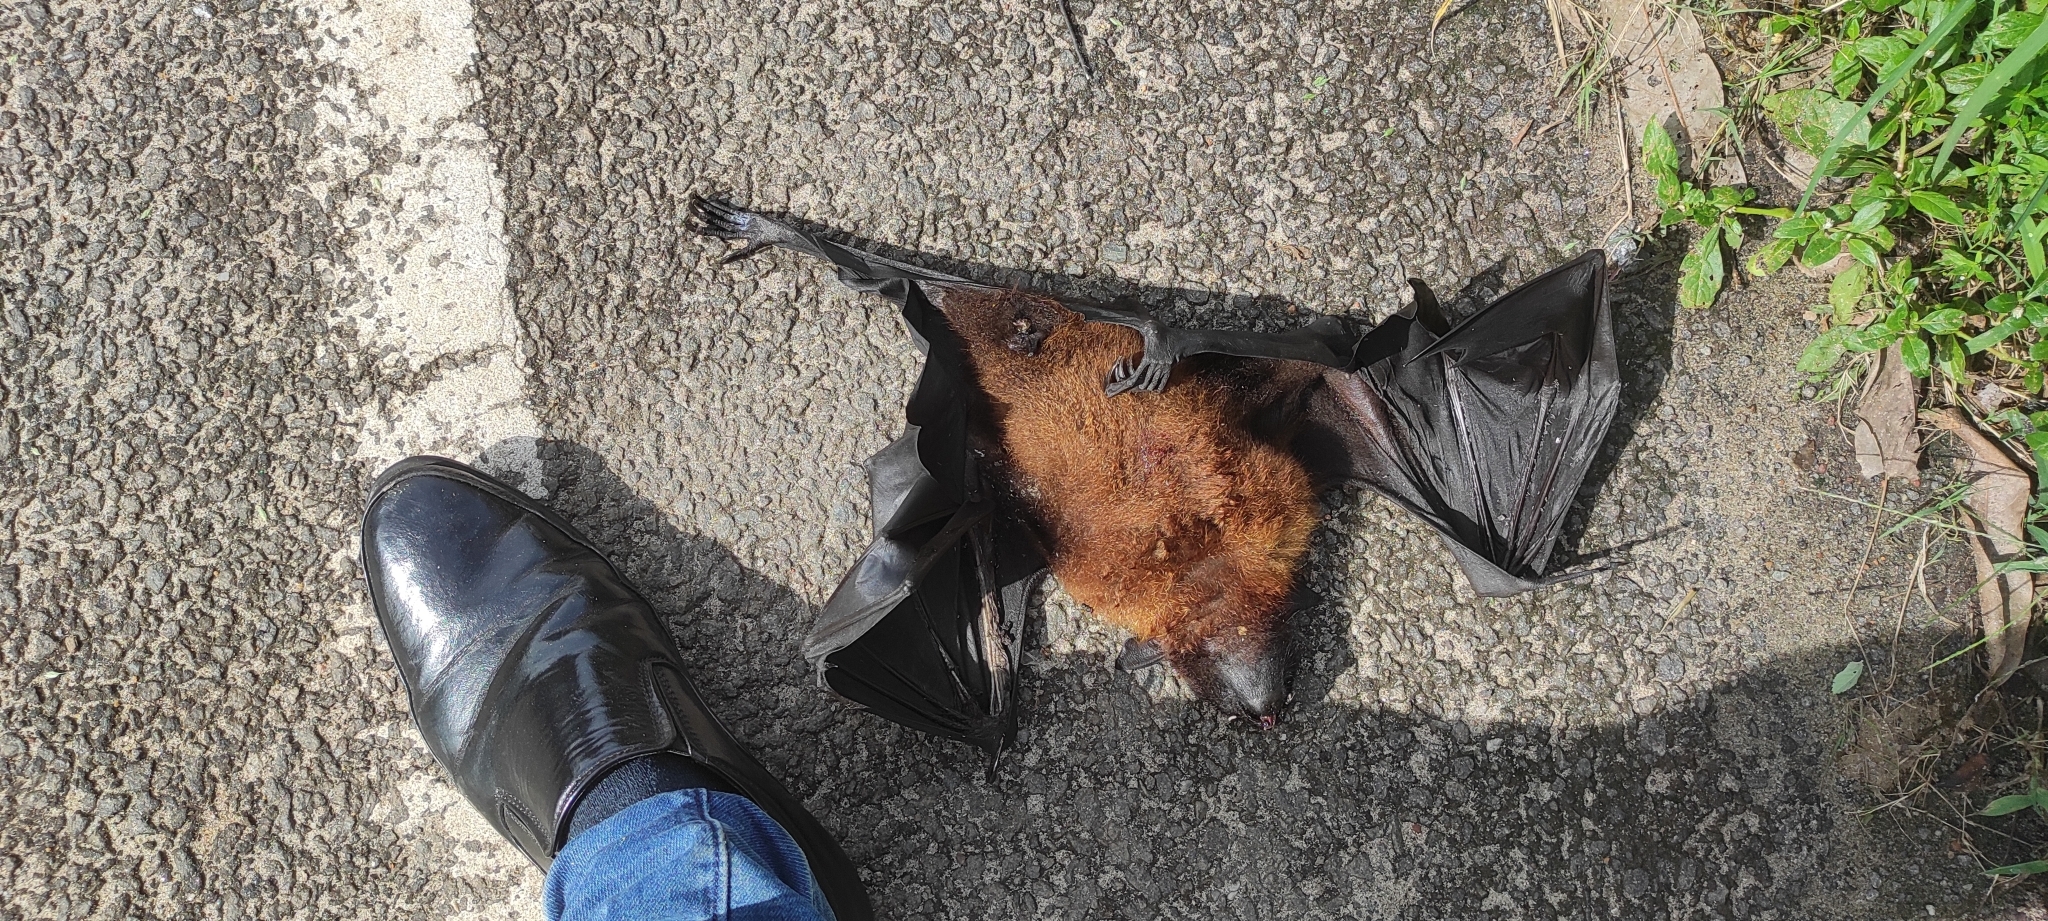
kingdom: Animalia
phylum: Chordata
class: Mammalia
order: Chiroptera
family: Pteropodidae
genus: Pteropus
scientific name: Pteropus vampyrus
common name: Large flying fox
